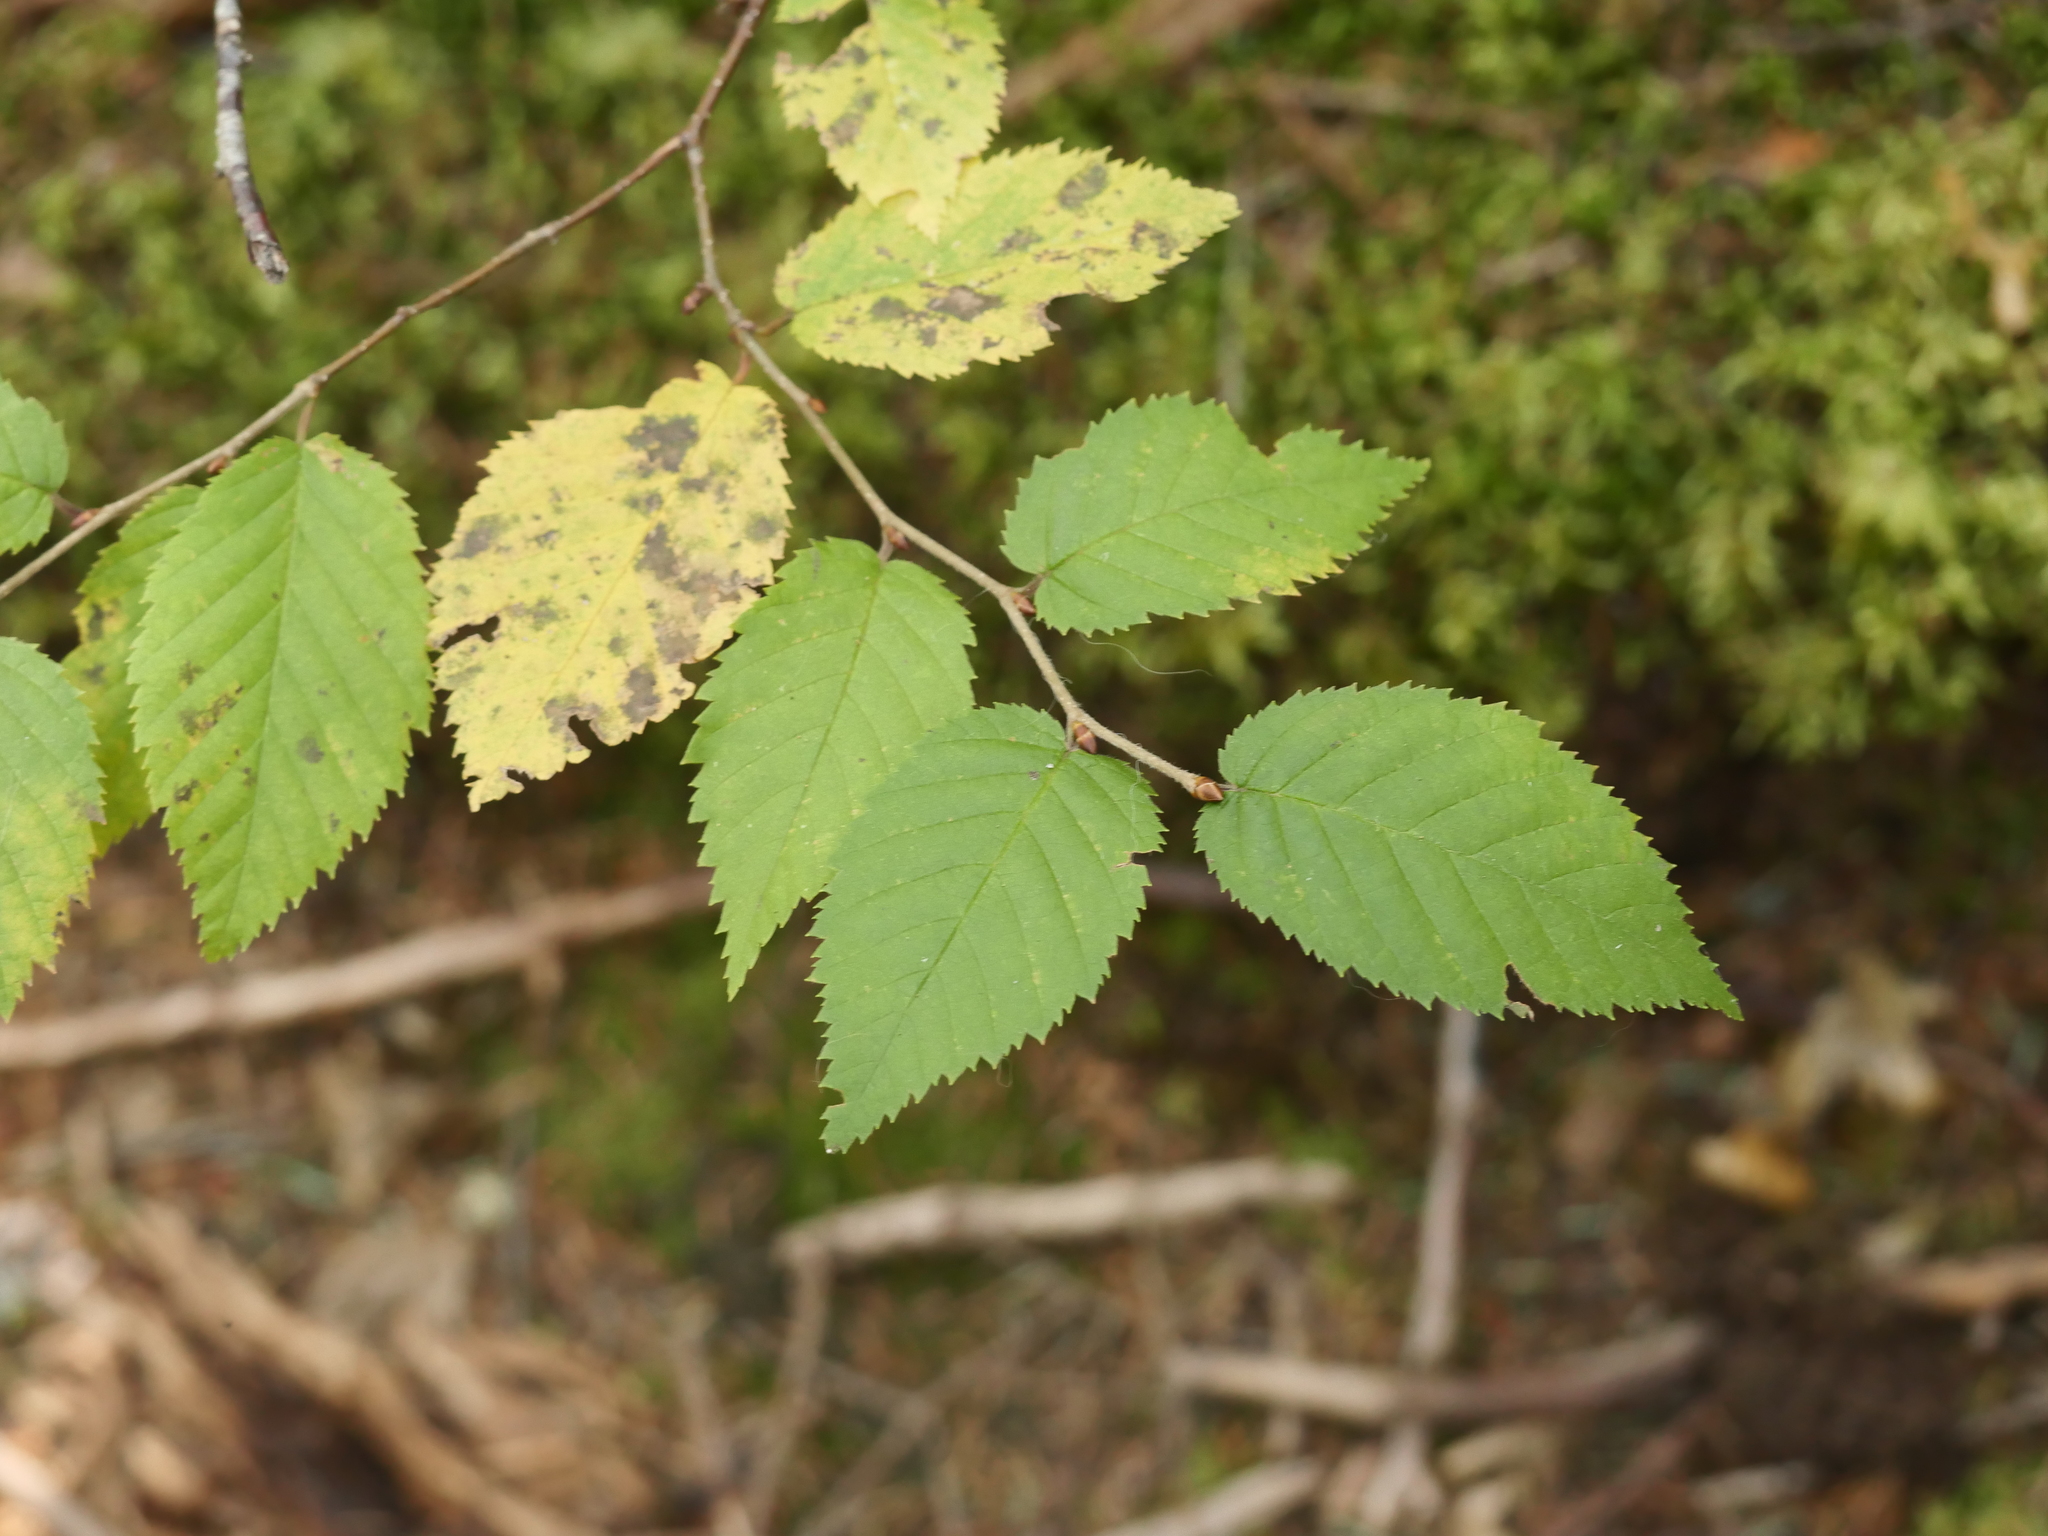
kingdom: Plantae
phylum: Tracheophyta
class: Magnoliopsida
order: Fagales
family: Betulaceae
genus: Betula
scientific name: Betula alleghaniensis
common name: Yellow birch
